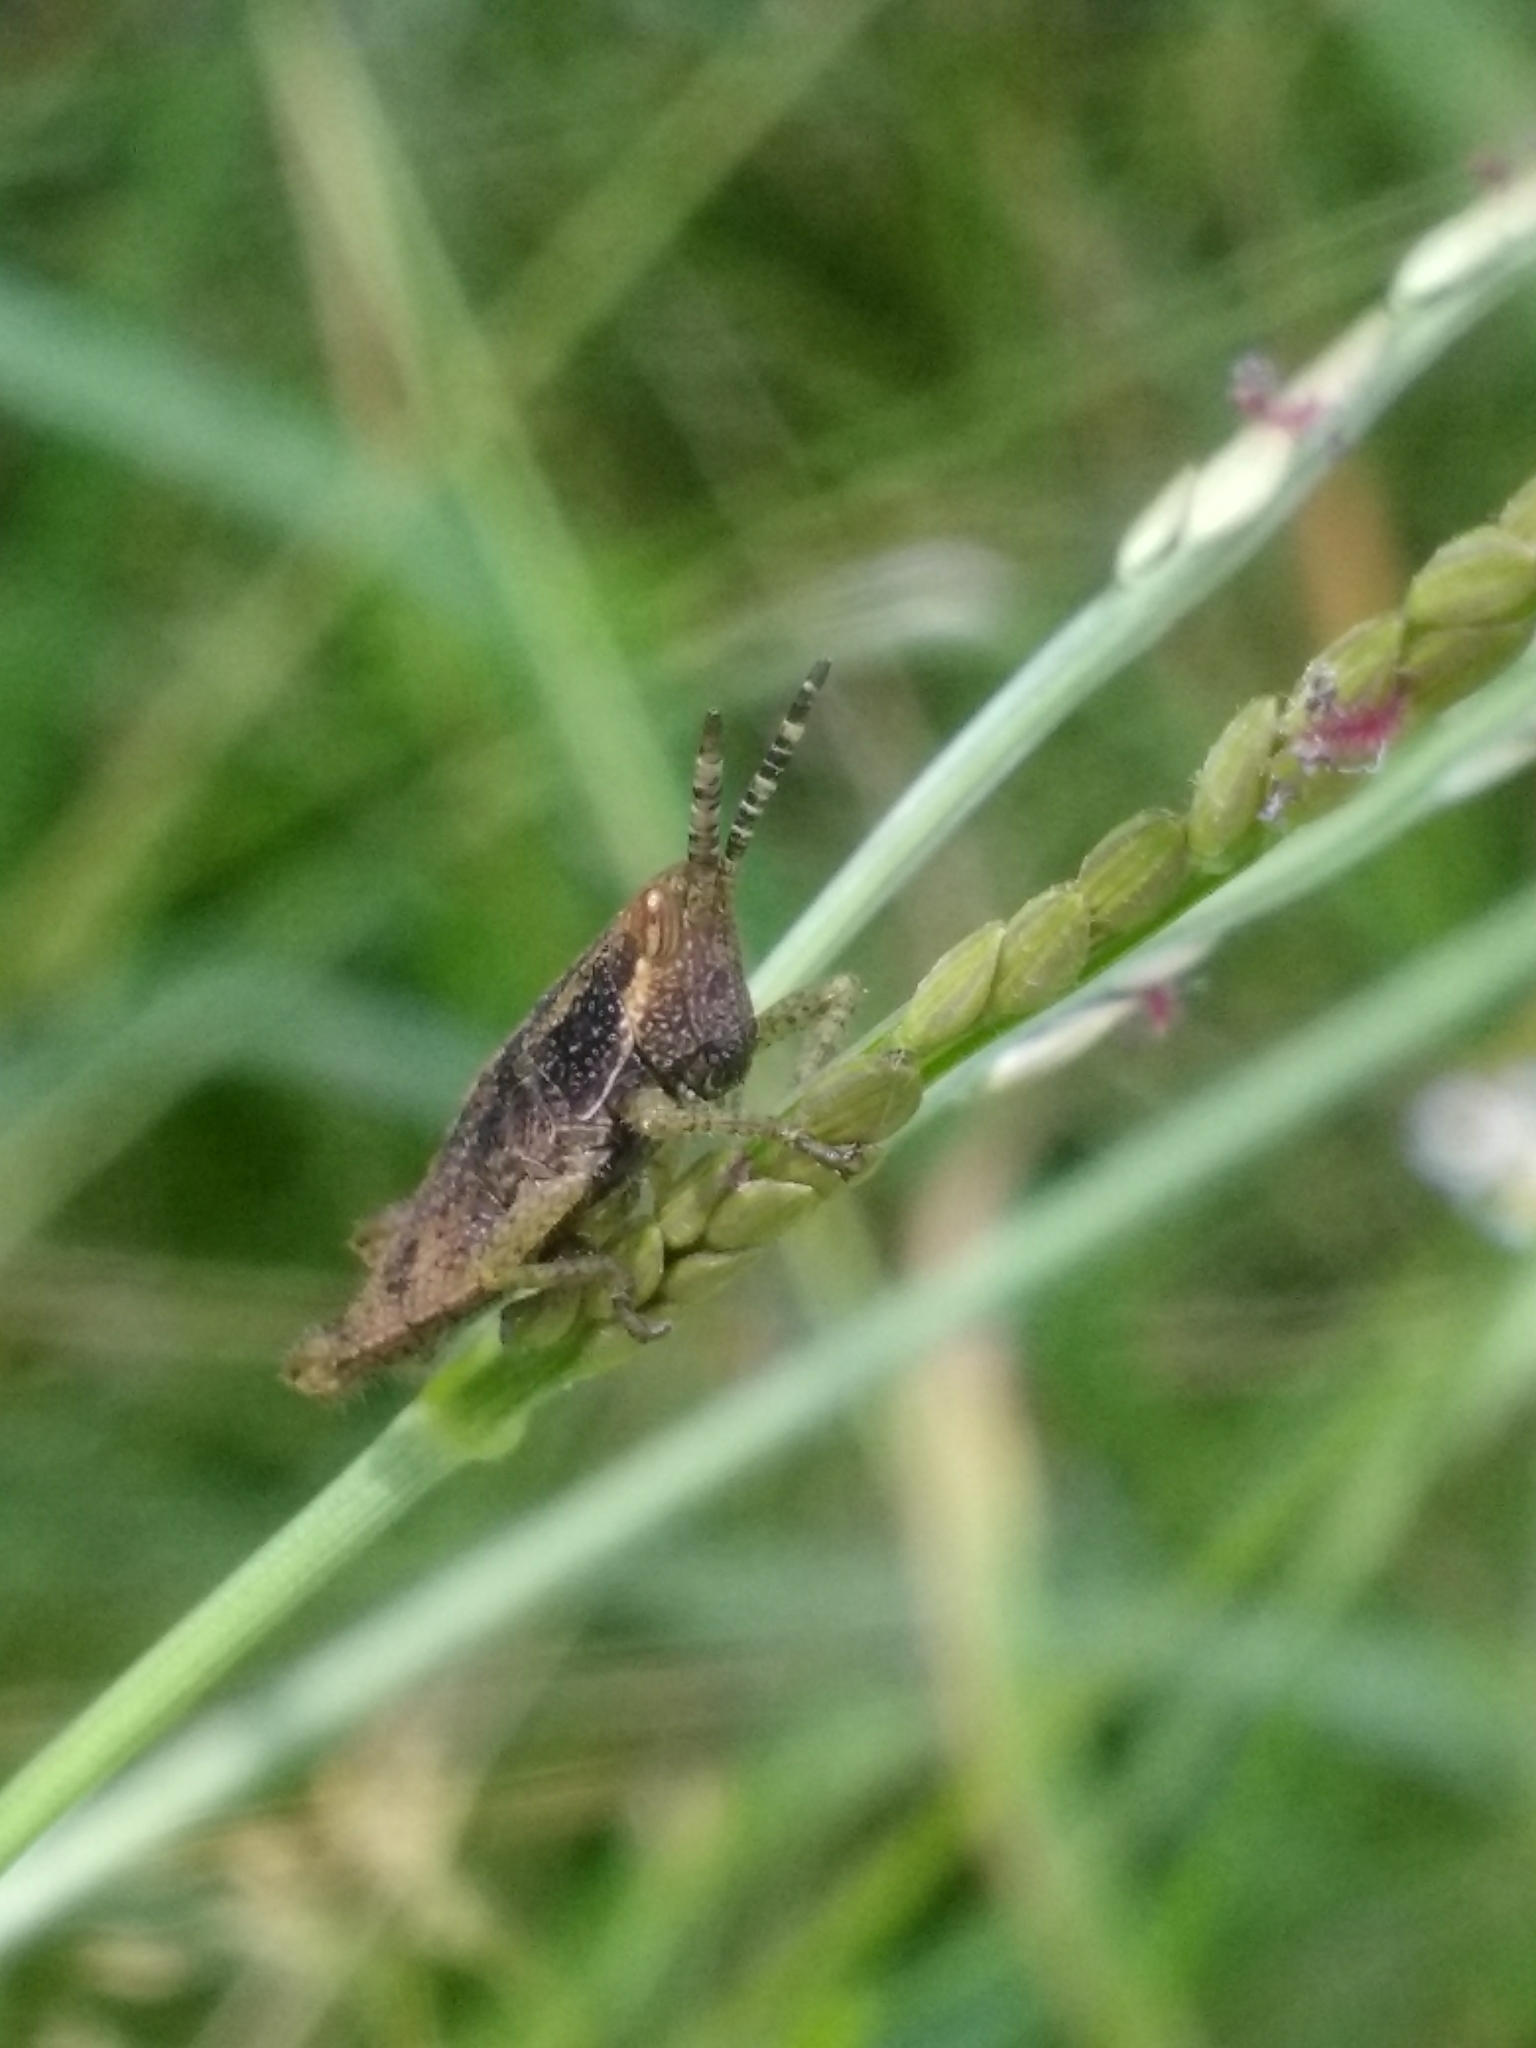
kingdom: Animalia
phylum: Arthropoda
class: Insecta
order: Orthoptera
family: Pyrgomorphidae
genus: Sphenarium
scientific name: Sphenarium purpurascens
